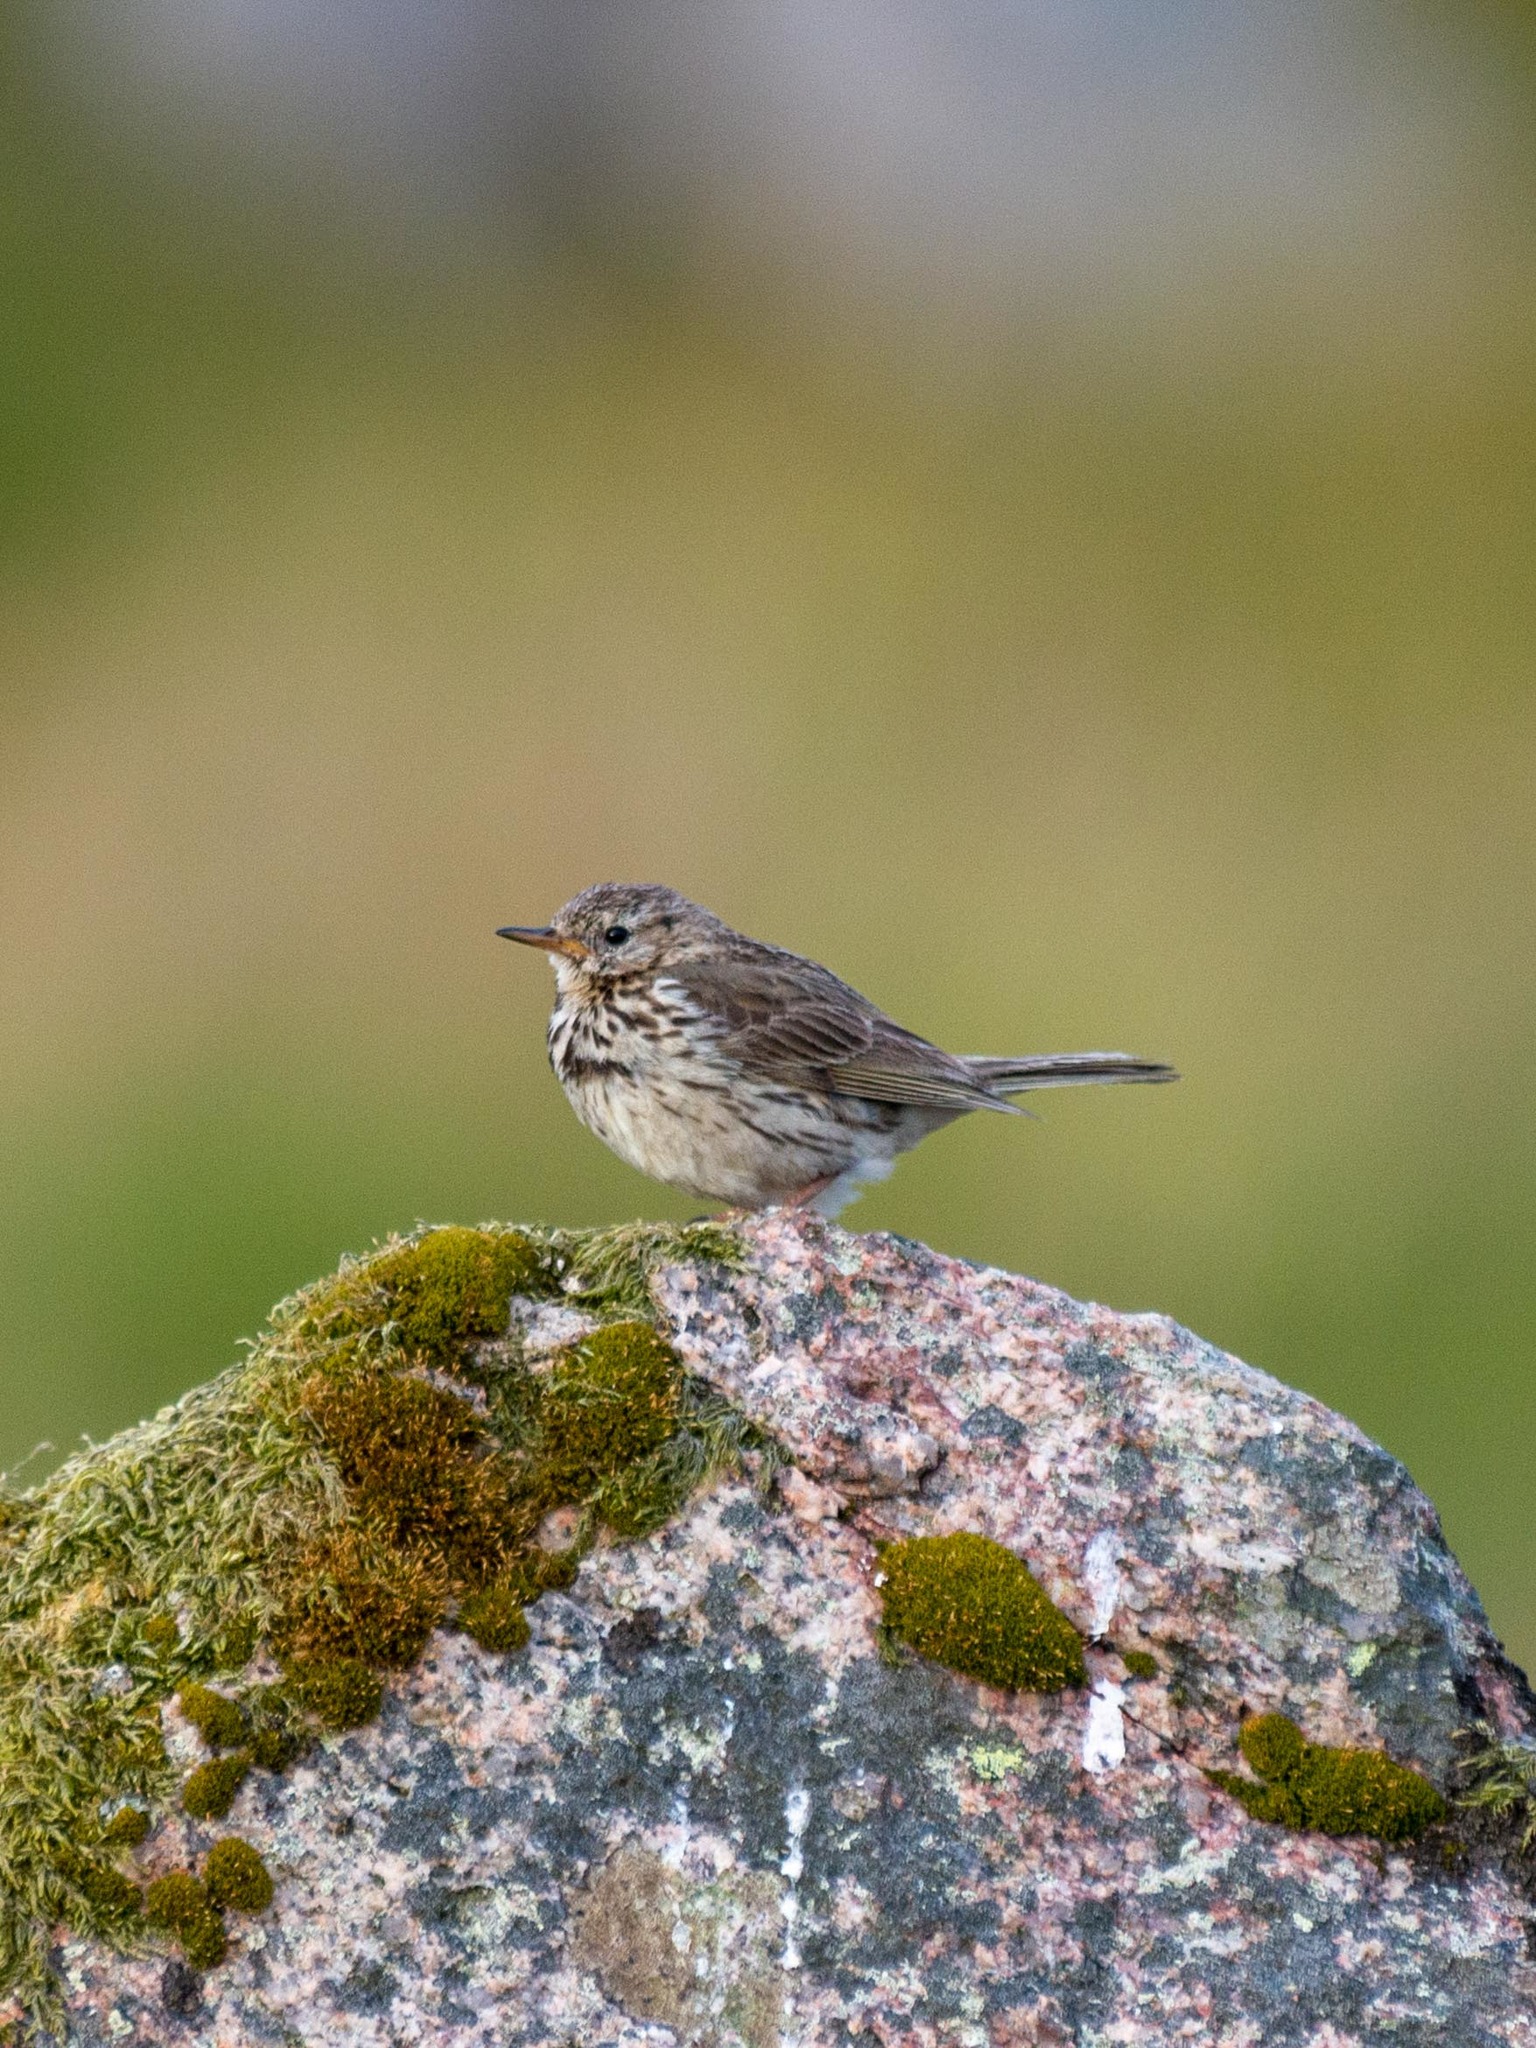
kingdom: Animalia
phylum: Chordata
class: Aves
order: Passeriformes
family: Motacillidae
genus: Anthus
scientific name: Anthus pratensis
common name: Meadow pipit
